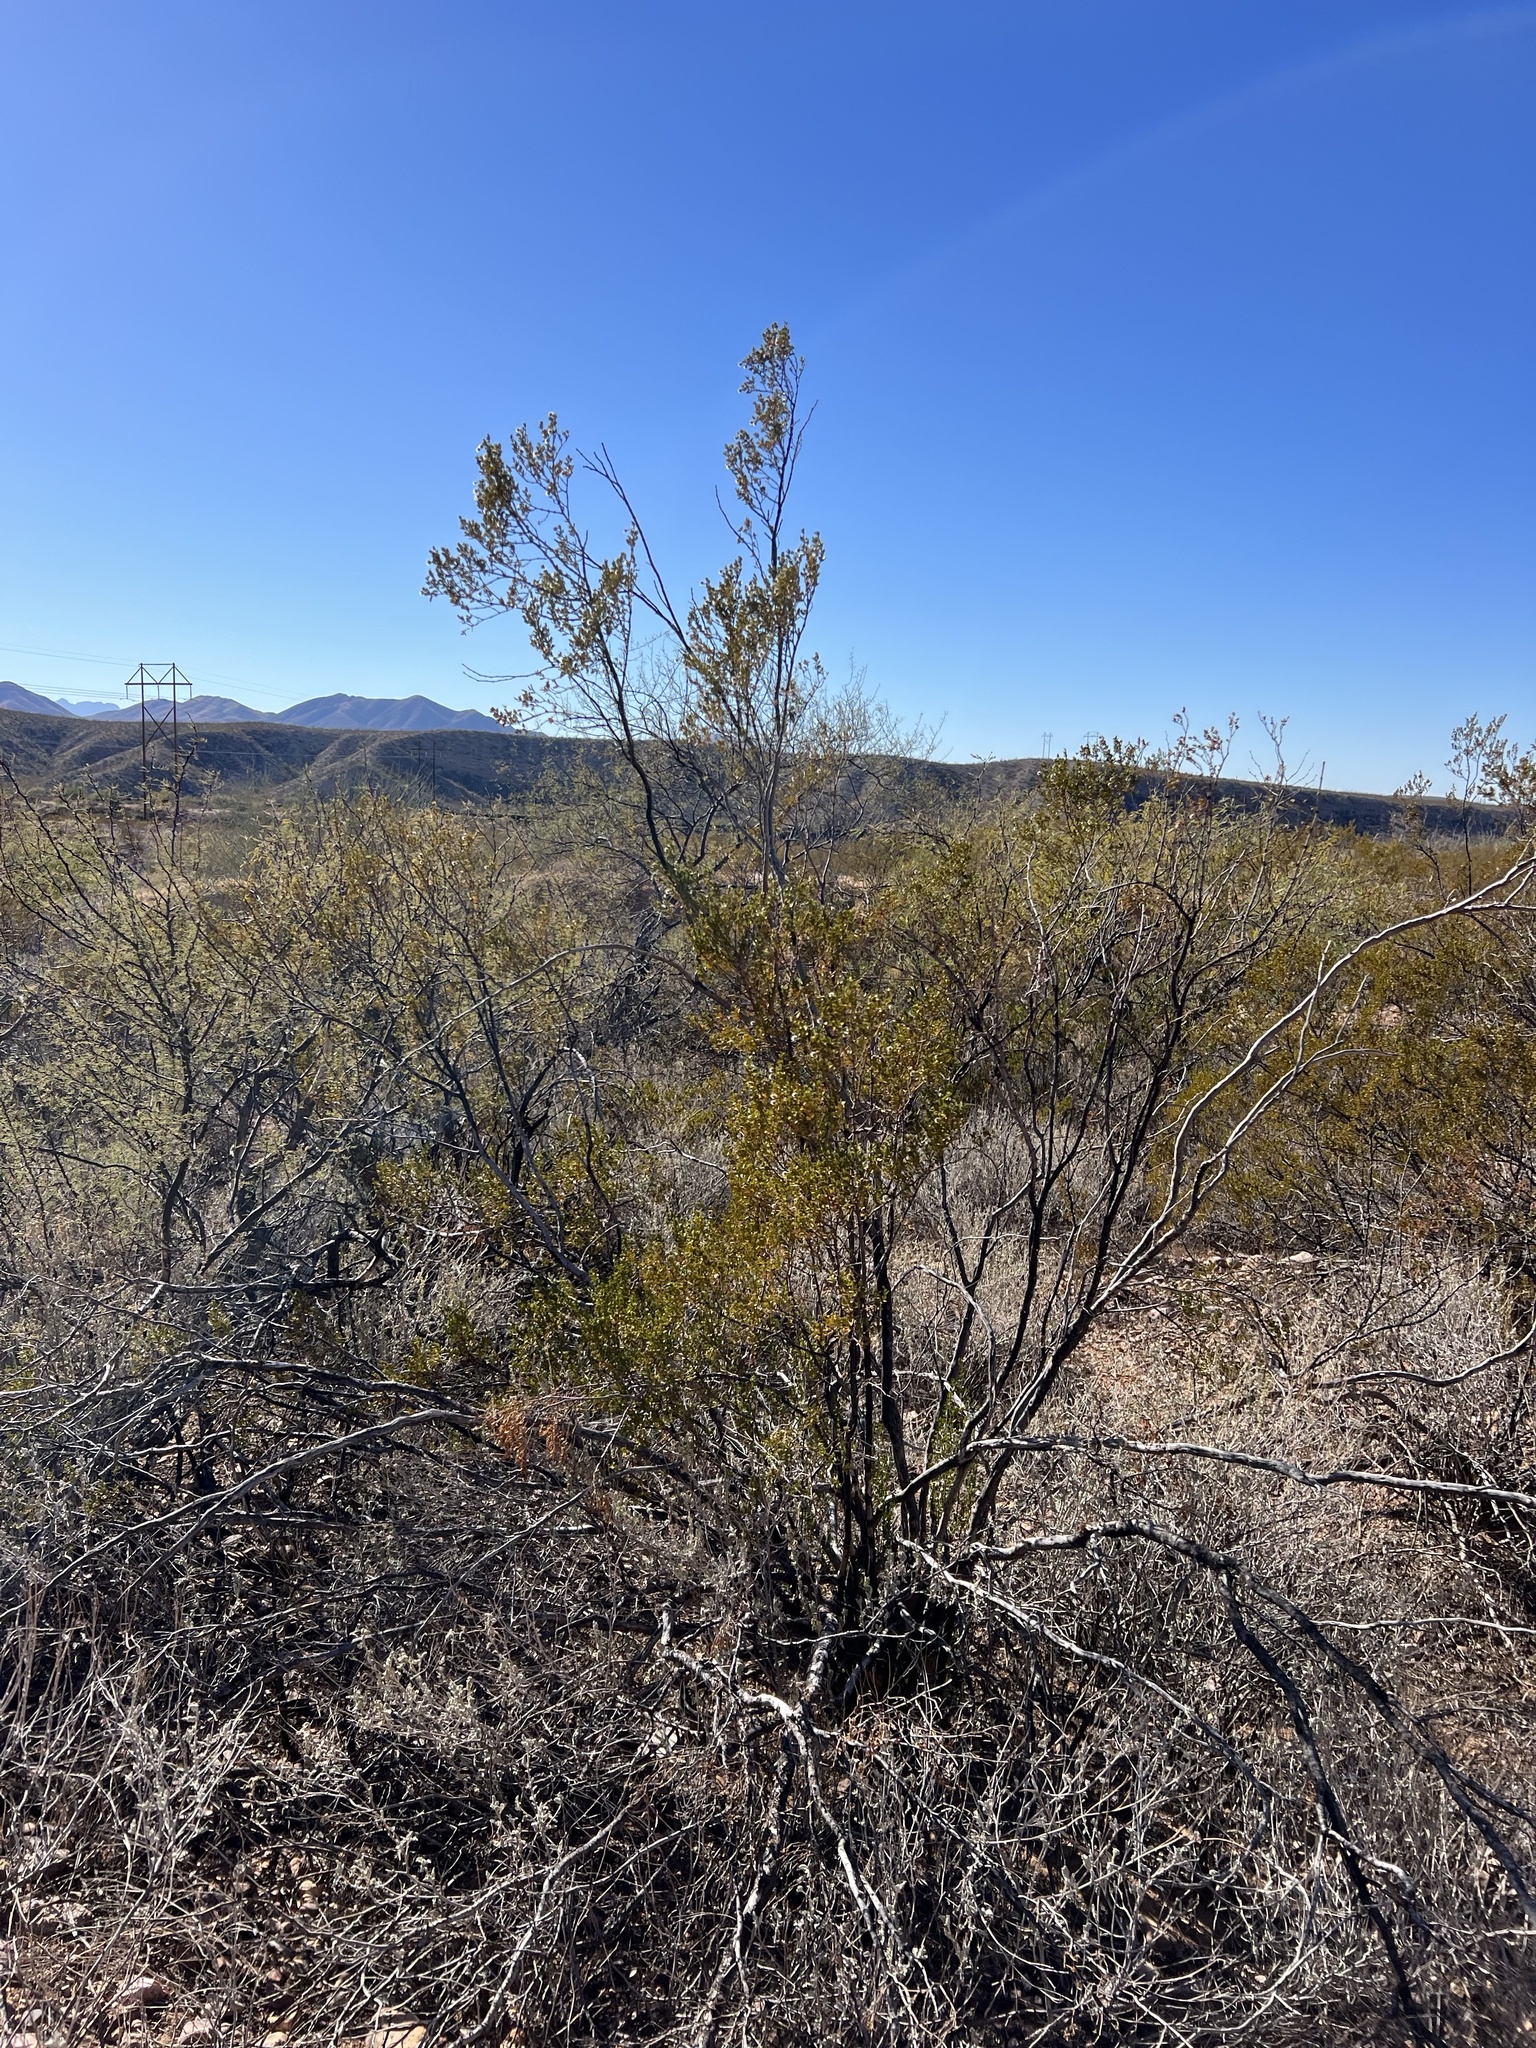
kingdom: Plantae
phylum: Tracheophyta
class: Magnoliopsida
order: Zygophyllales
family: Zygophyllaceae
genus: Larrea
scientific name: Larrea tridentata
